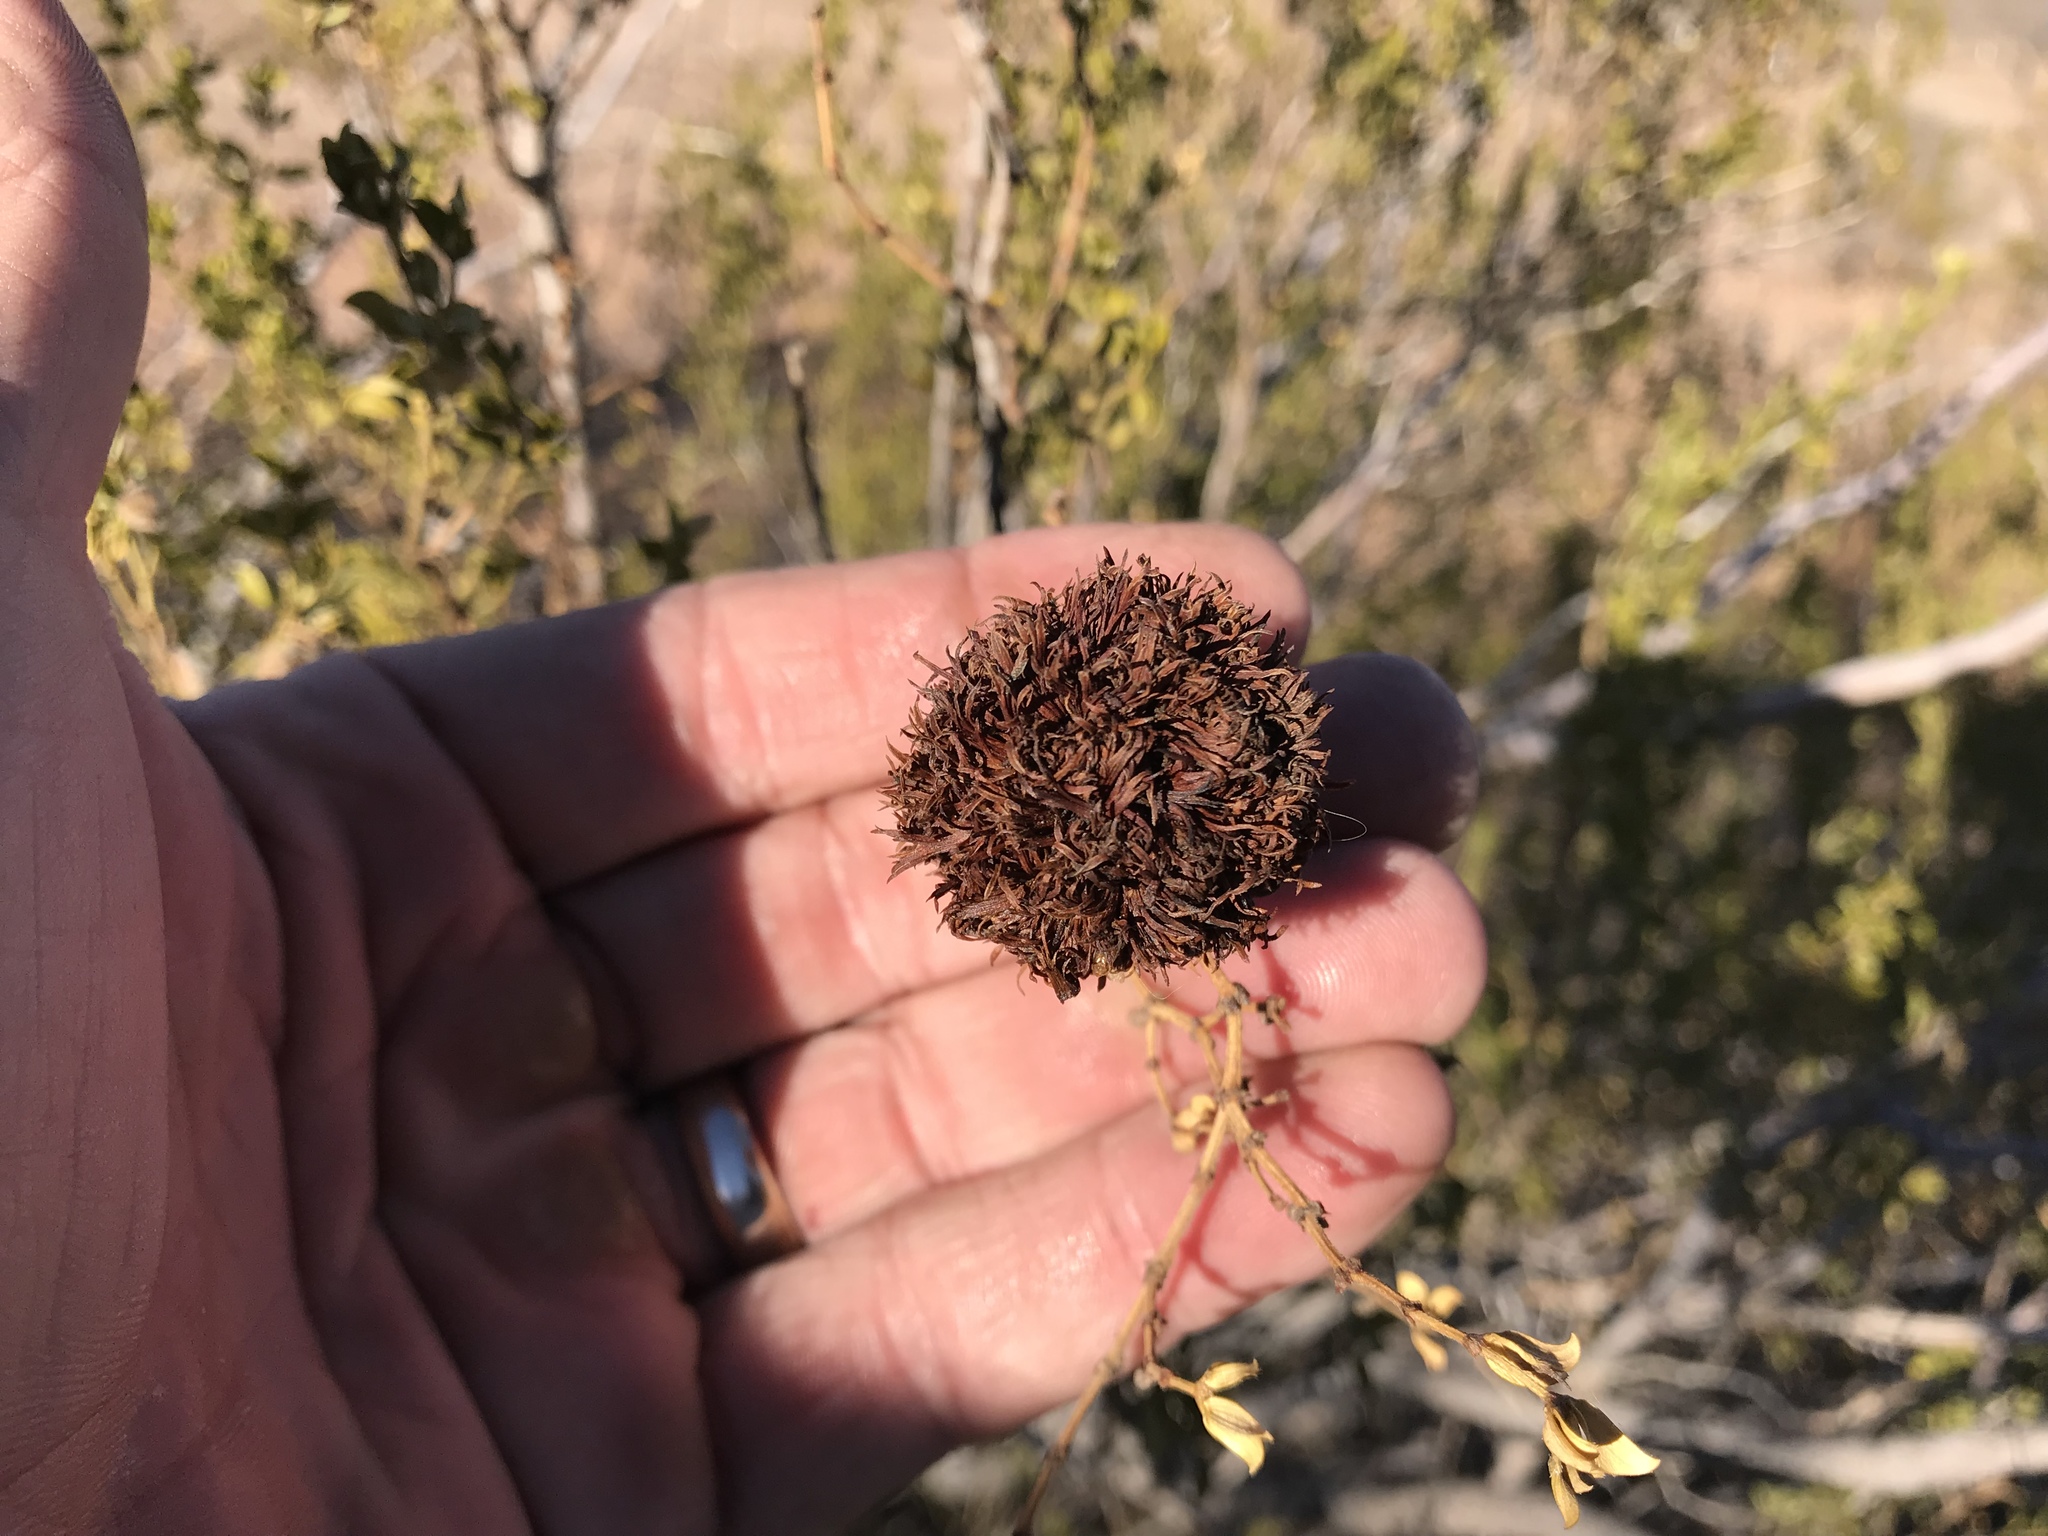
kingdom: Animalia
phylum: Arthropoda
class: Insecta
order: Diptera
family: Cecidomyiidae
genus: Asphondylia
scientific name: Asphondylia auripila
